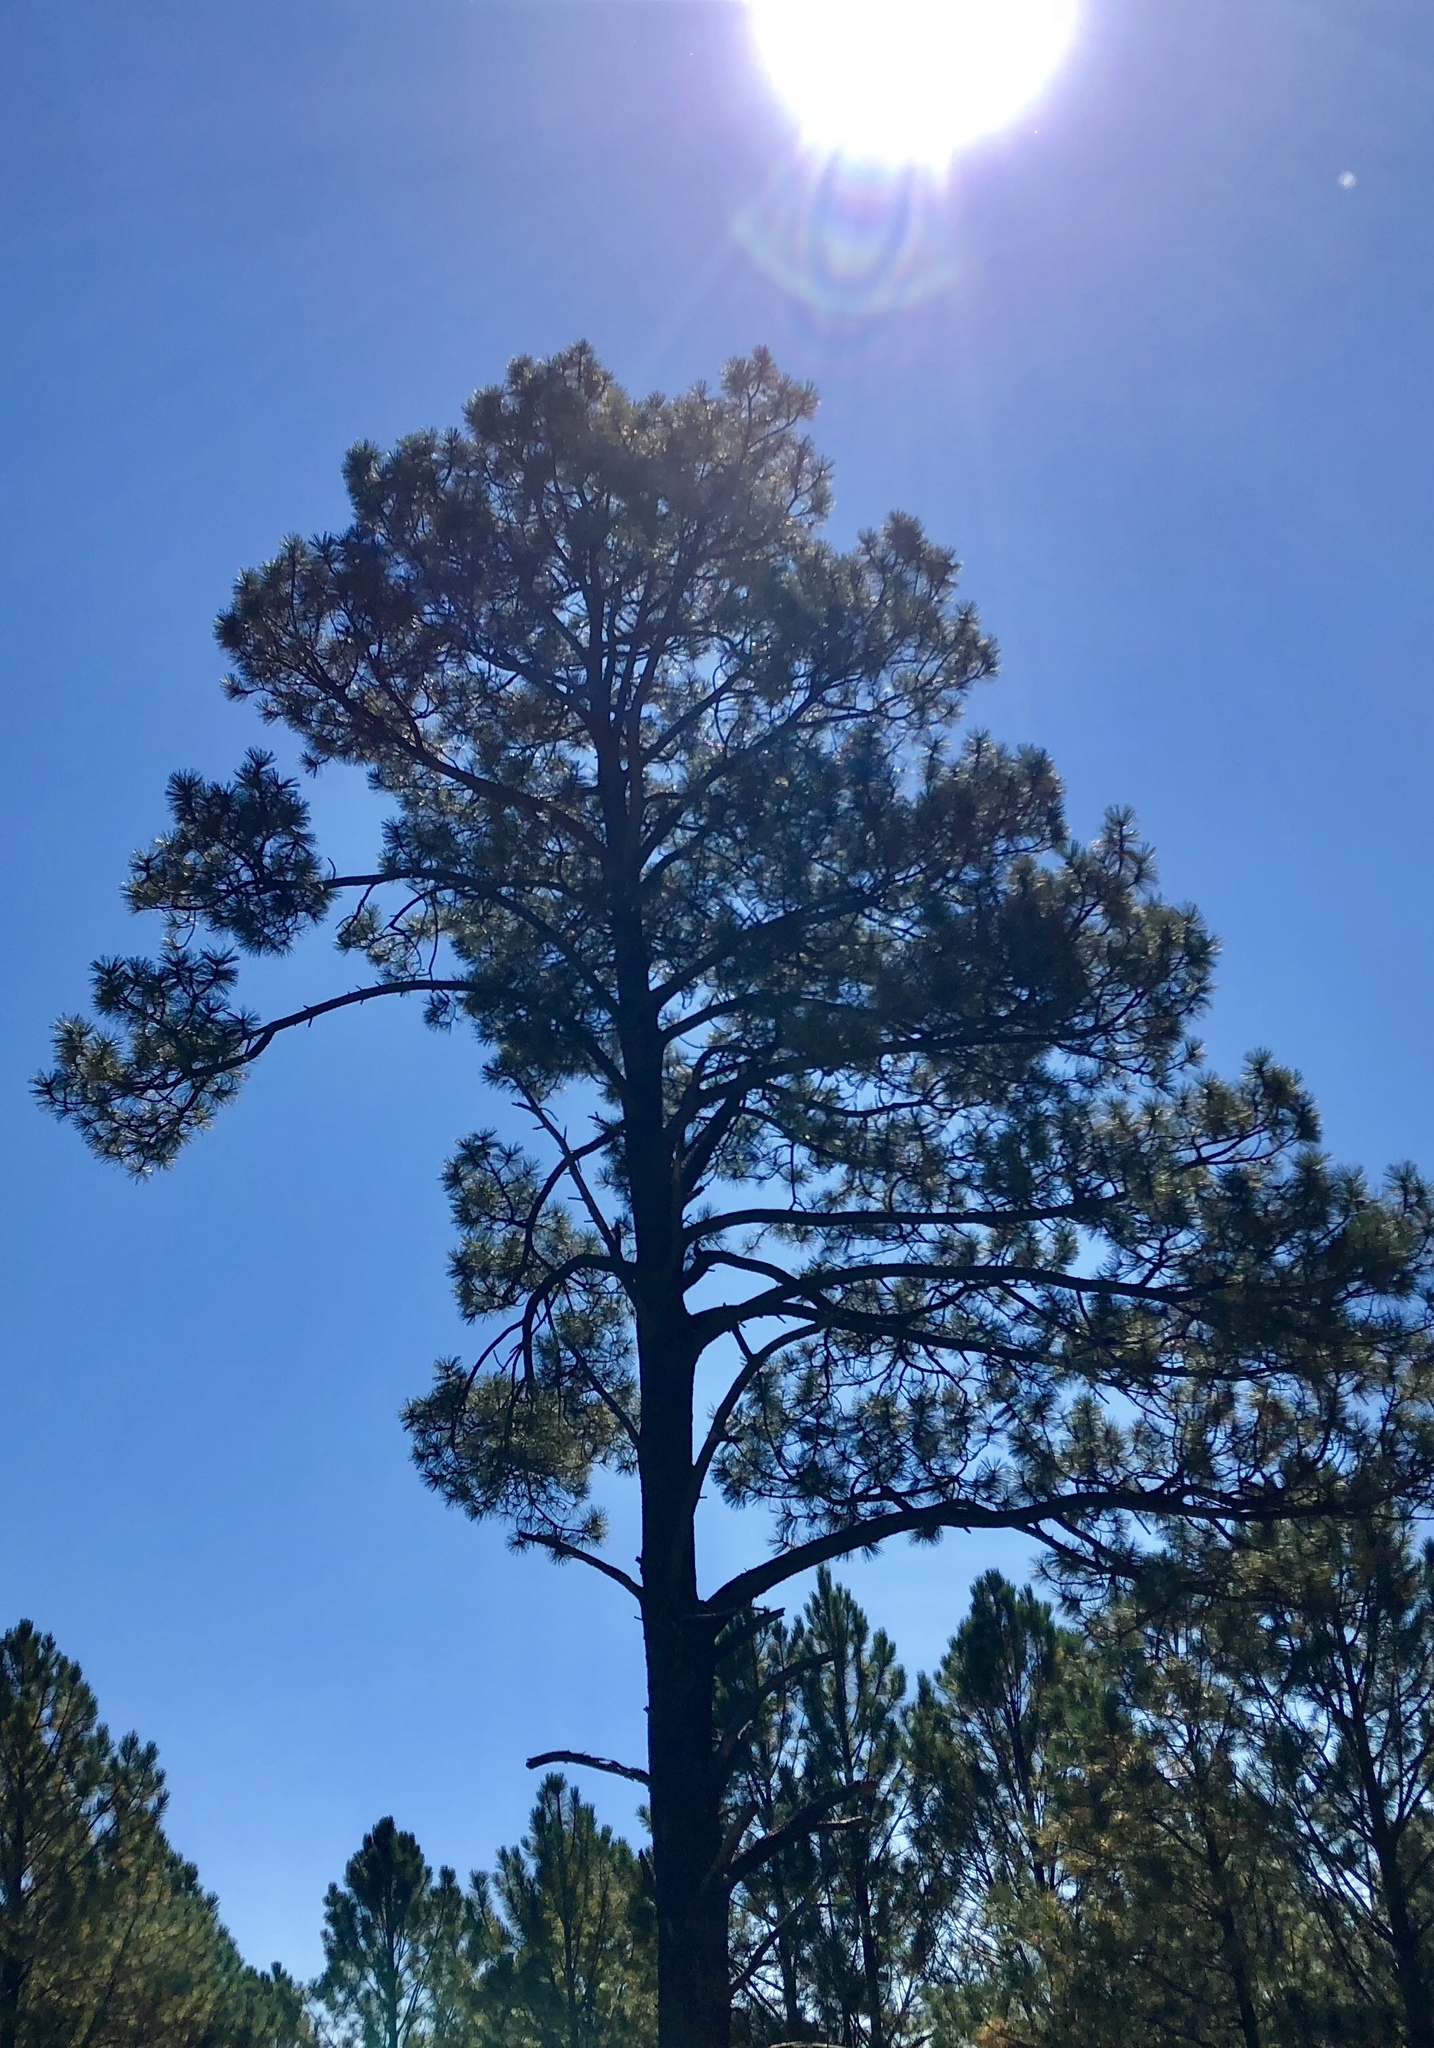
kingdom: Plantae
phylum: Tracheophyta
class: Pinopsida
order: Pinales
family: Pinaceae
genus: Pinus
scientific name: Pinus ponderosa
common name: Western yellow-pine
